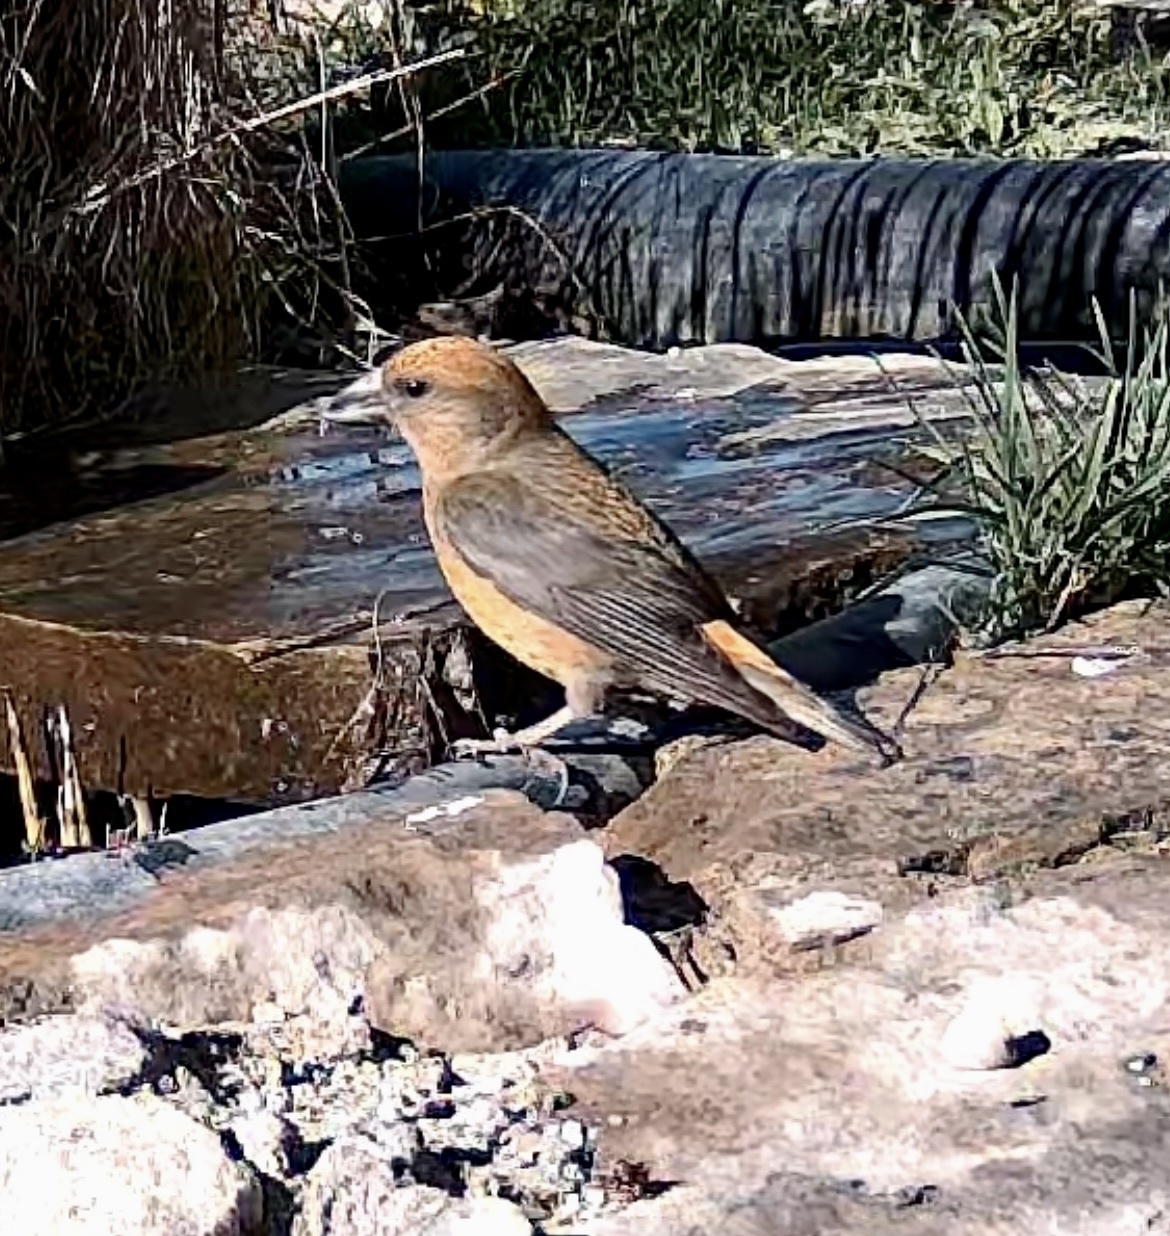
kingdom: Animalia
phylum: Chordata
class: Aves
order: Passeriformes
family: Fringillidae
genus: Loxia
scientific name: Loxia curvirostra
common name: Red crossbill
